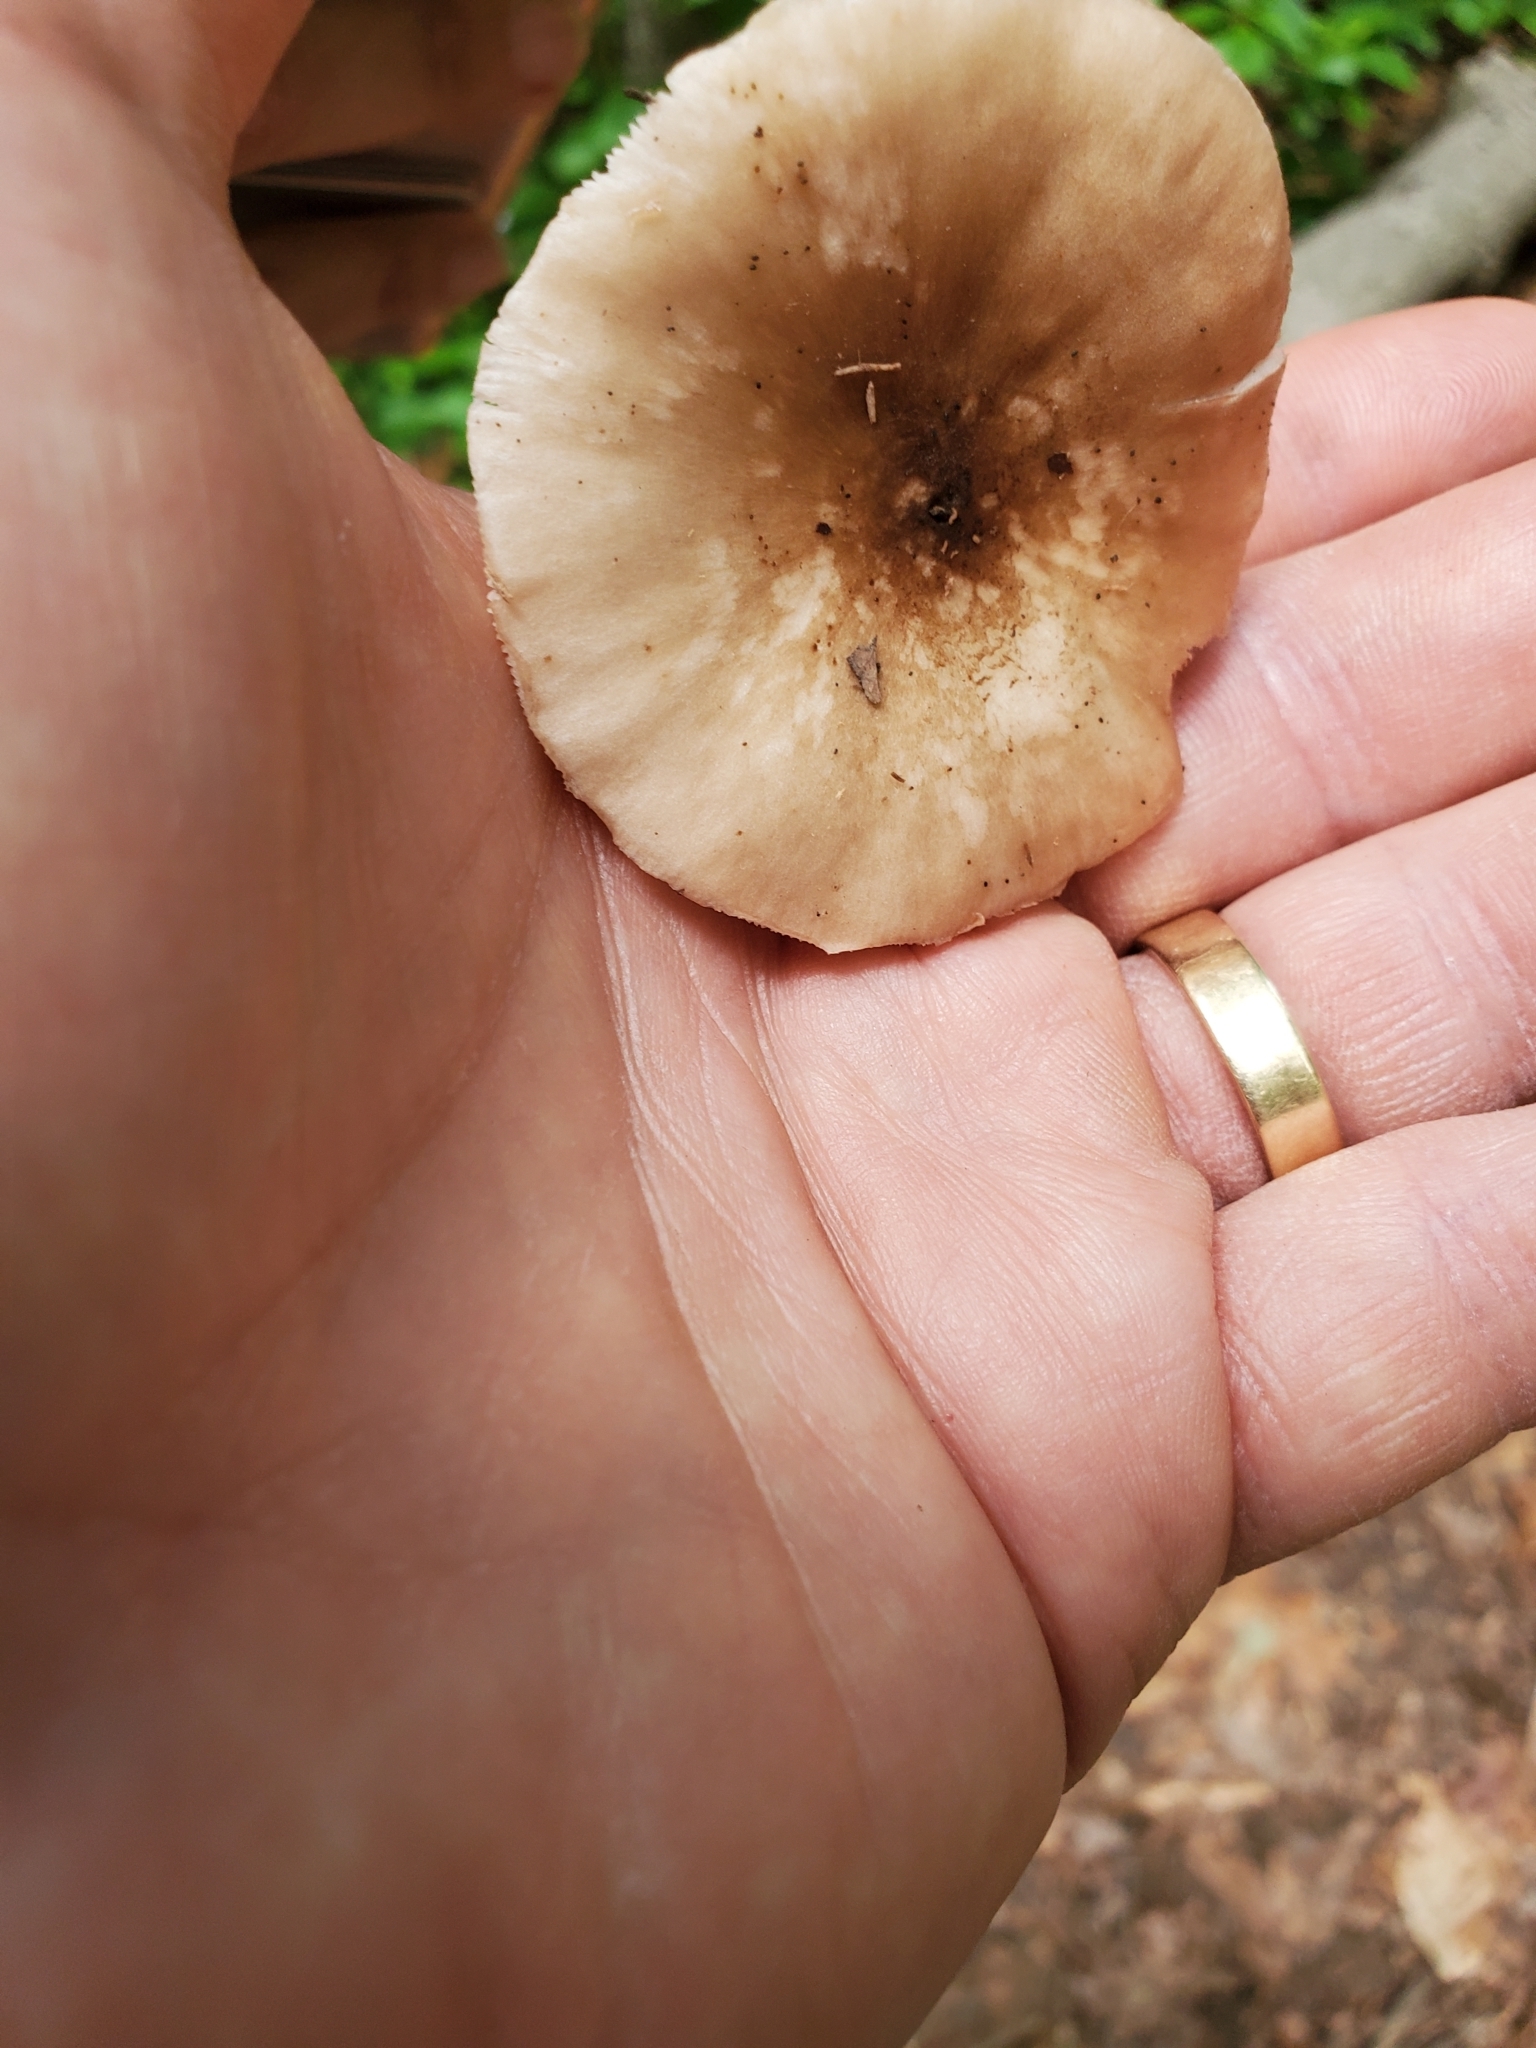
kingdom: Fungi
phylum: Basidiomycota
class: Agaricomycetes
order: Agaricales
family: Pluteaceae
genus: Pluteus
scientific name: Pluteus cervinus
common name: Deer shield
